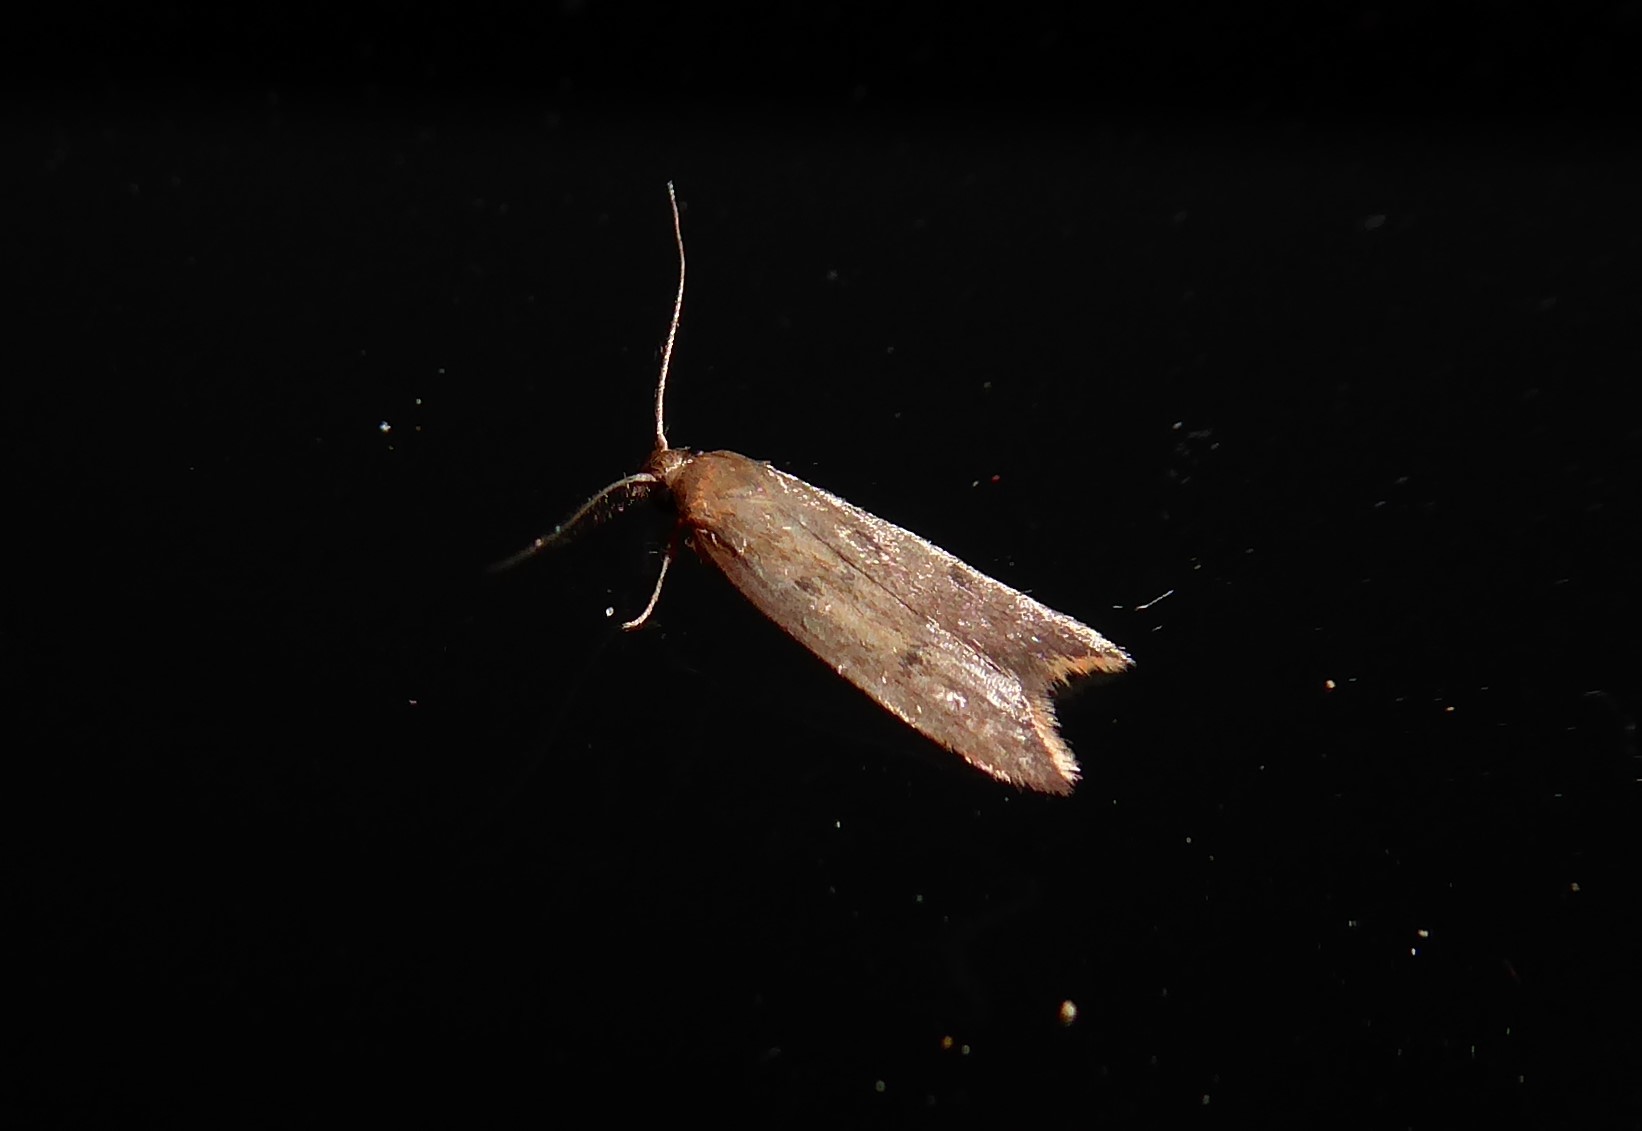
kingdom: Animalia
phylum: Arthropoda
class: Insecta
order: Lepidoptera
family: Oecophoridae
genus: Tachystola
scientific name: Tachystola acroxantha
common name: Ruddy streak
